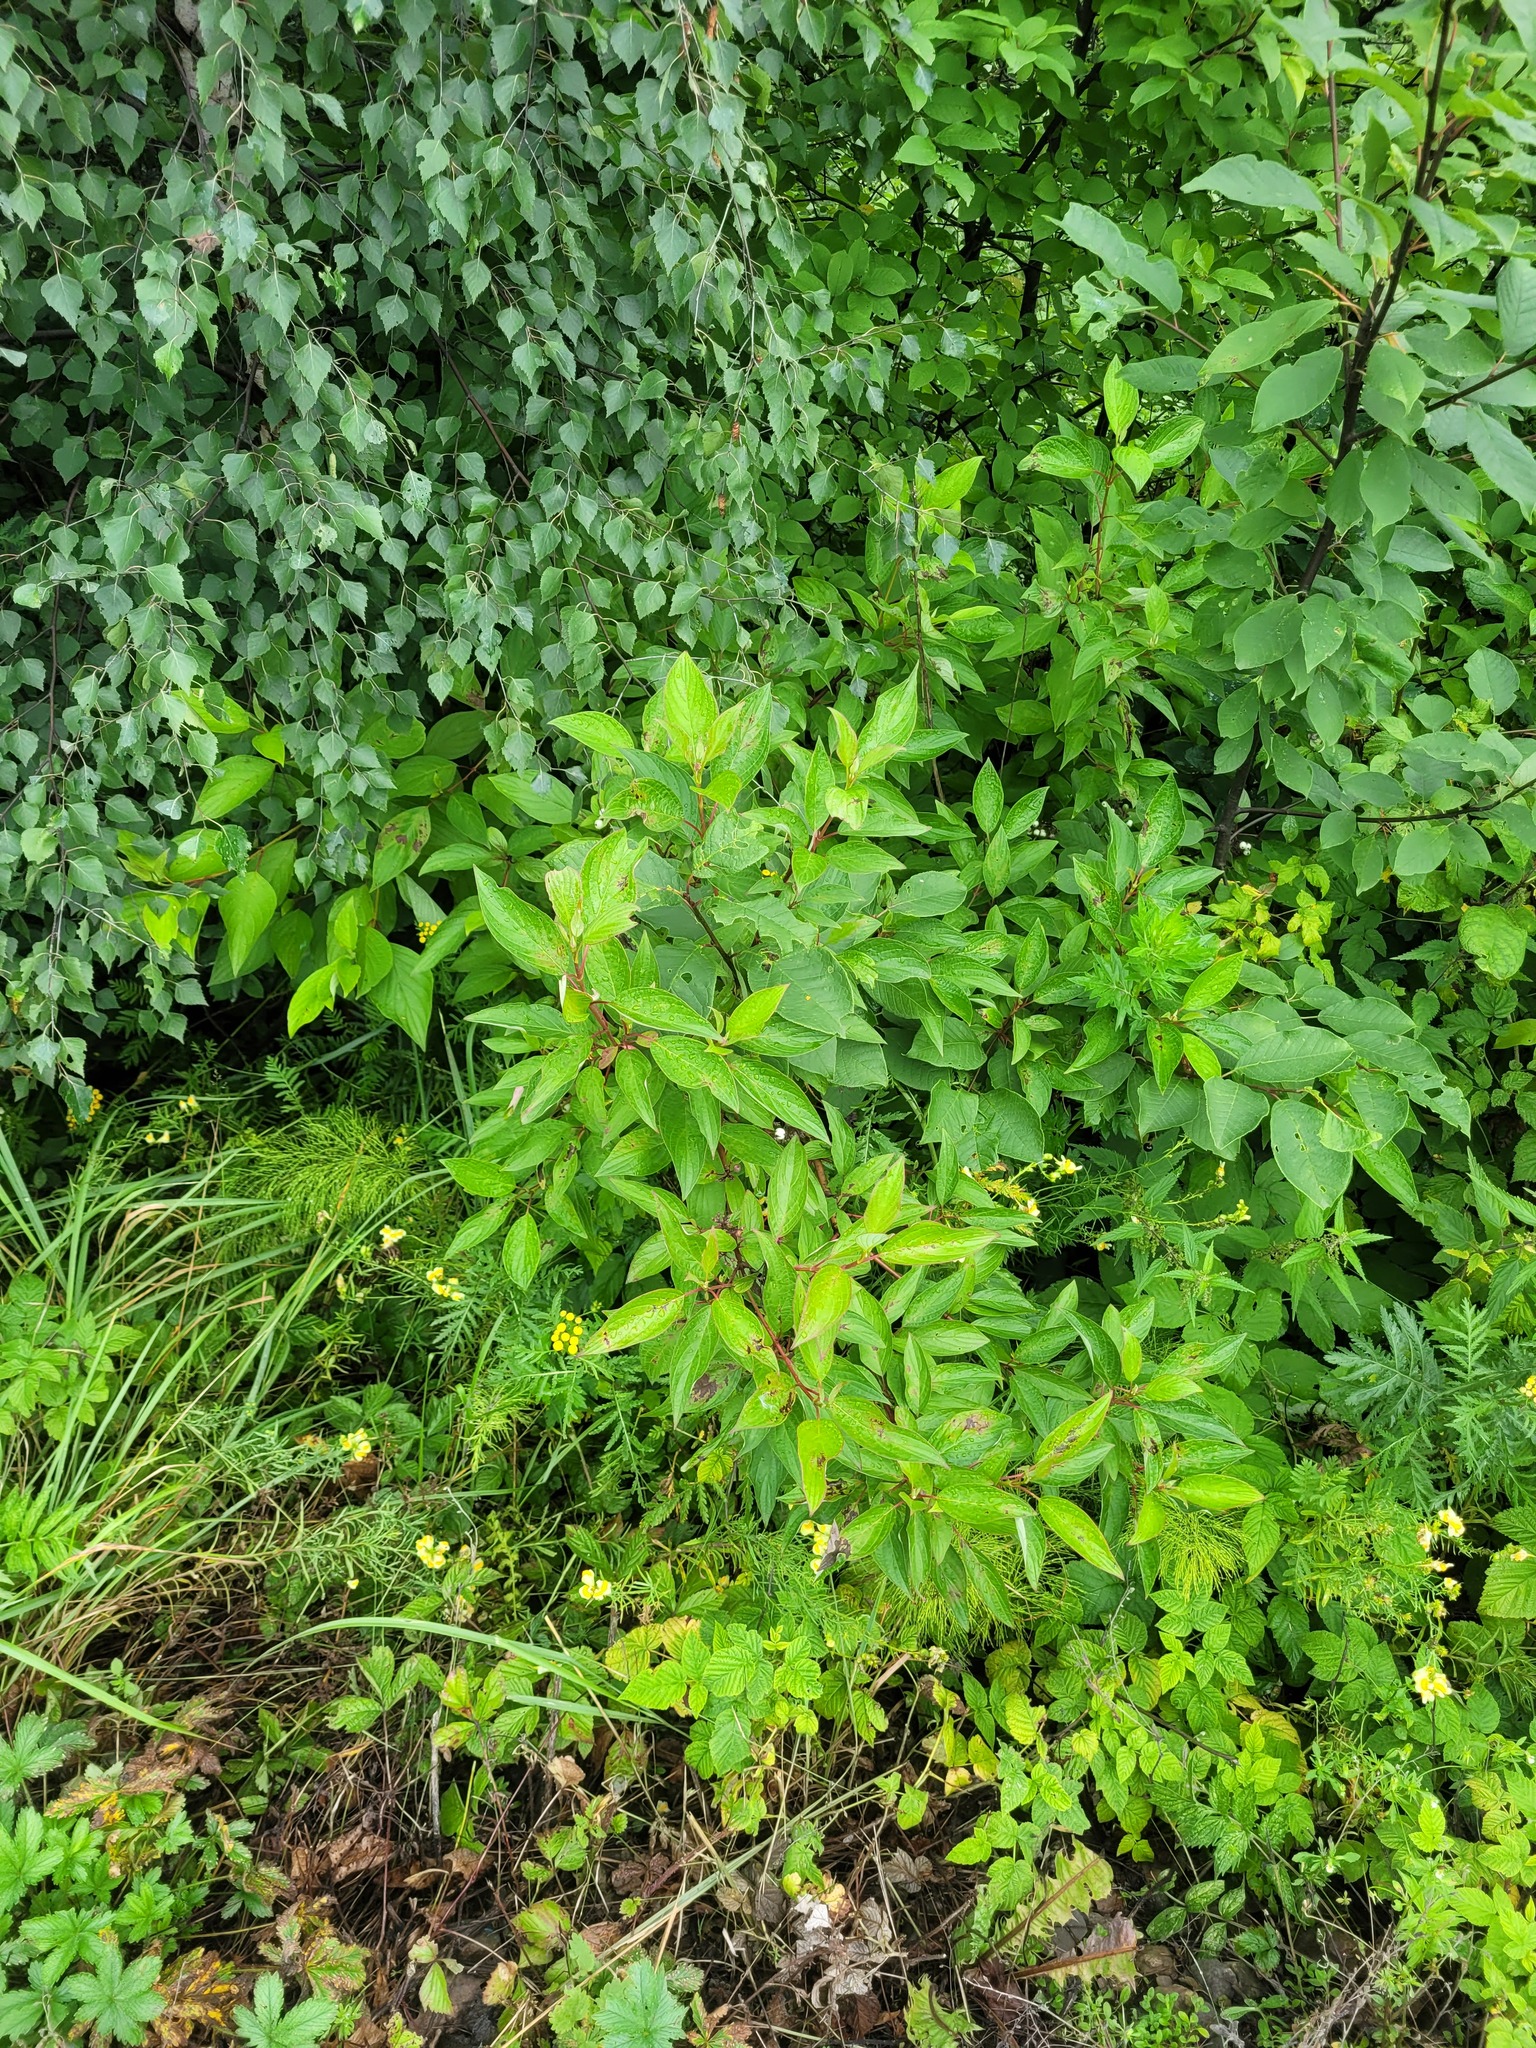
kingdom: Plantae
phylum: Tracheophyta
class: Magnoliopsida
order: Cornales
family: Cornaceae
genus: Cornus
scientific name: Cornus alba
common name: White dogwood
